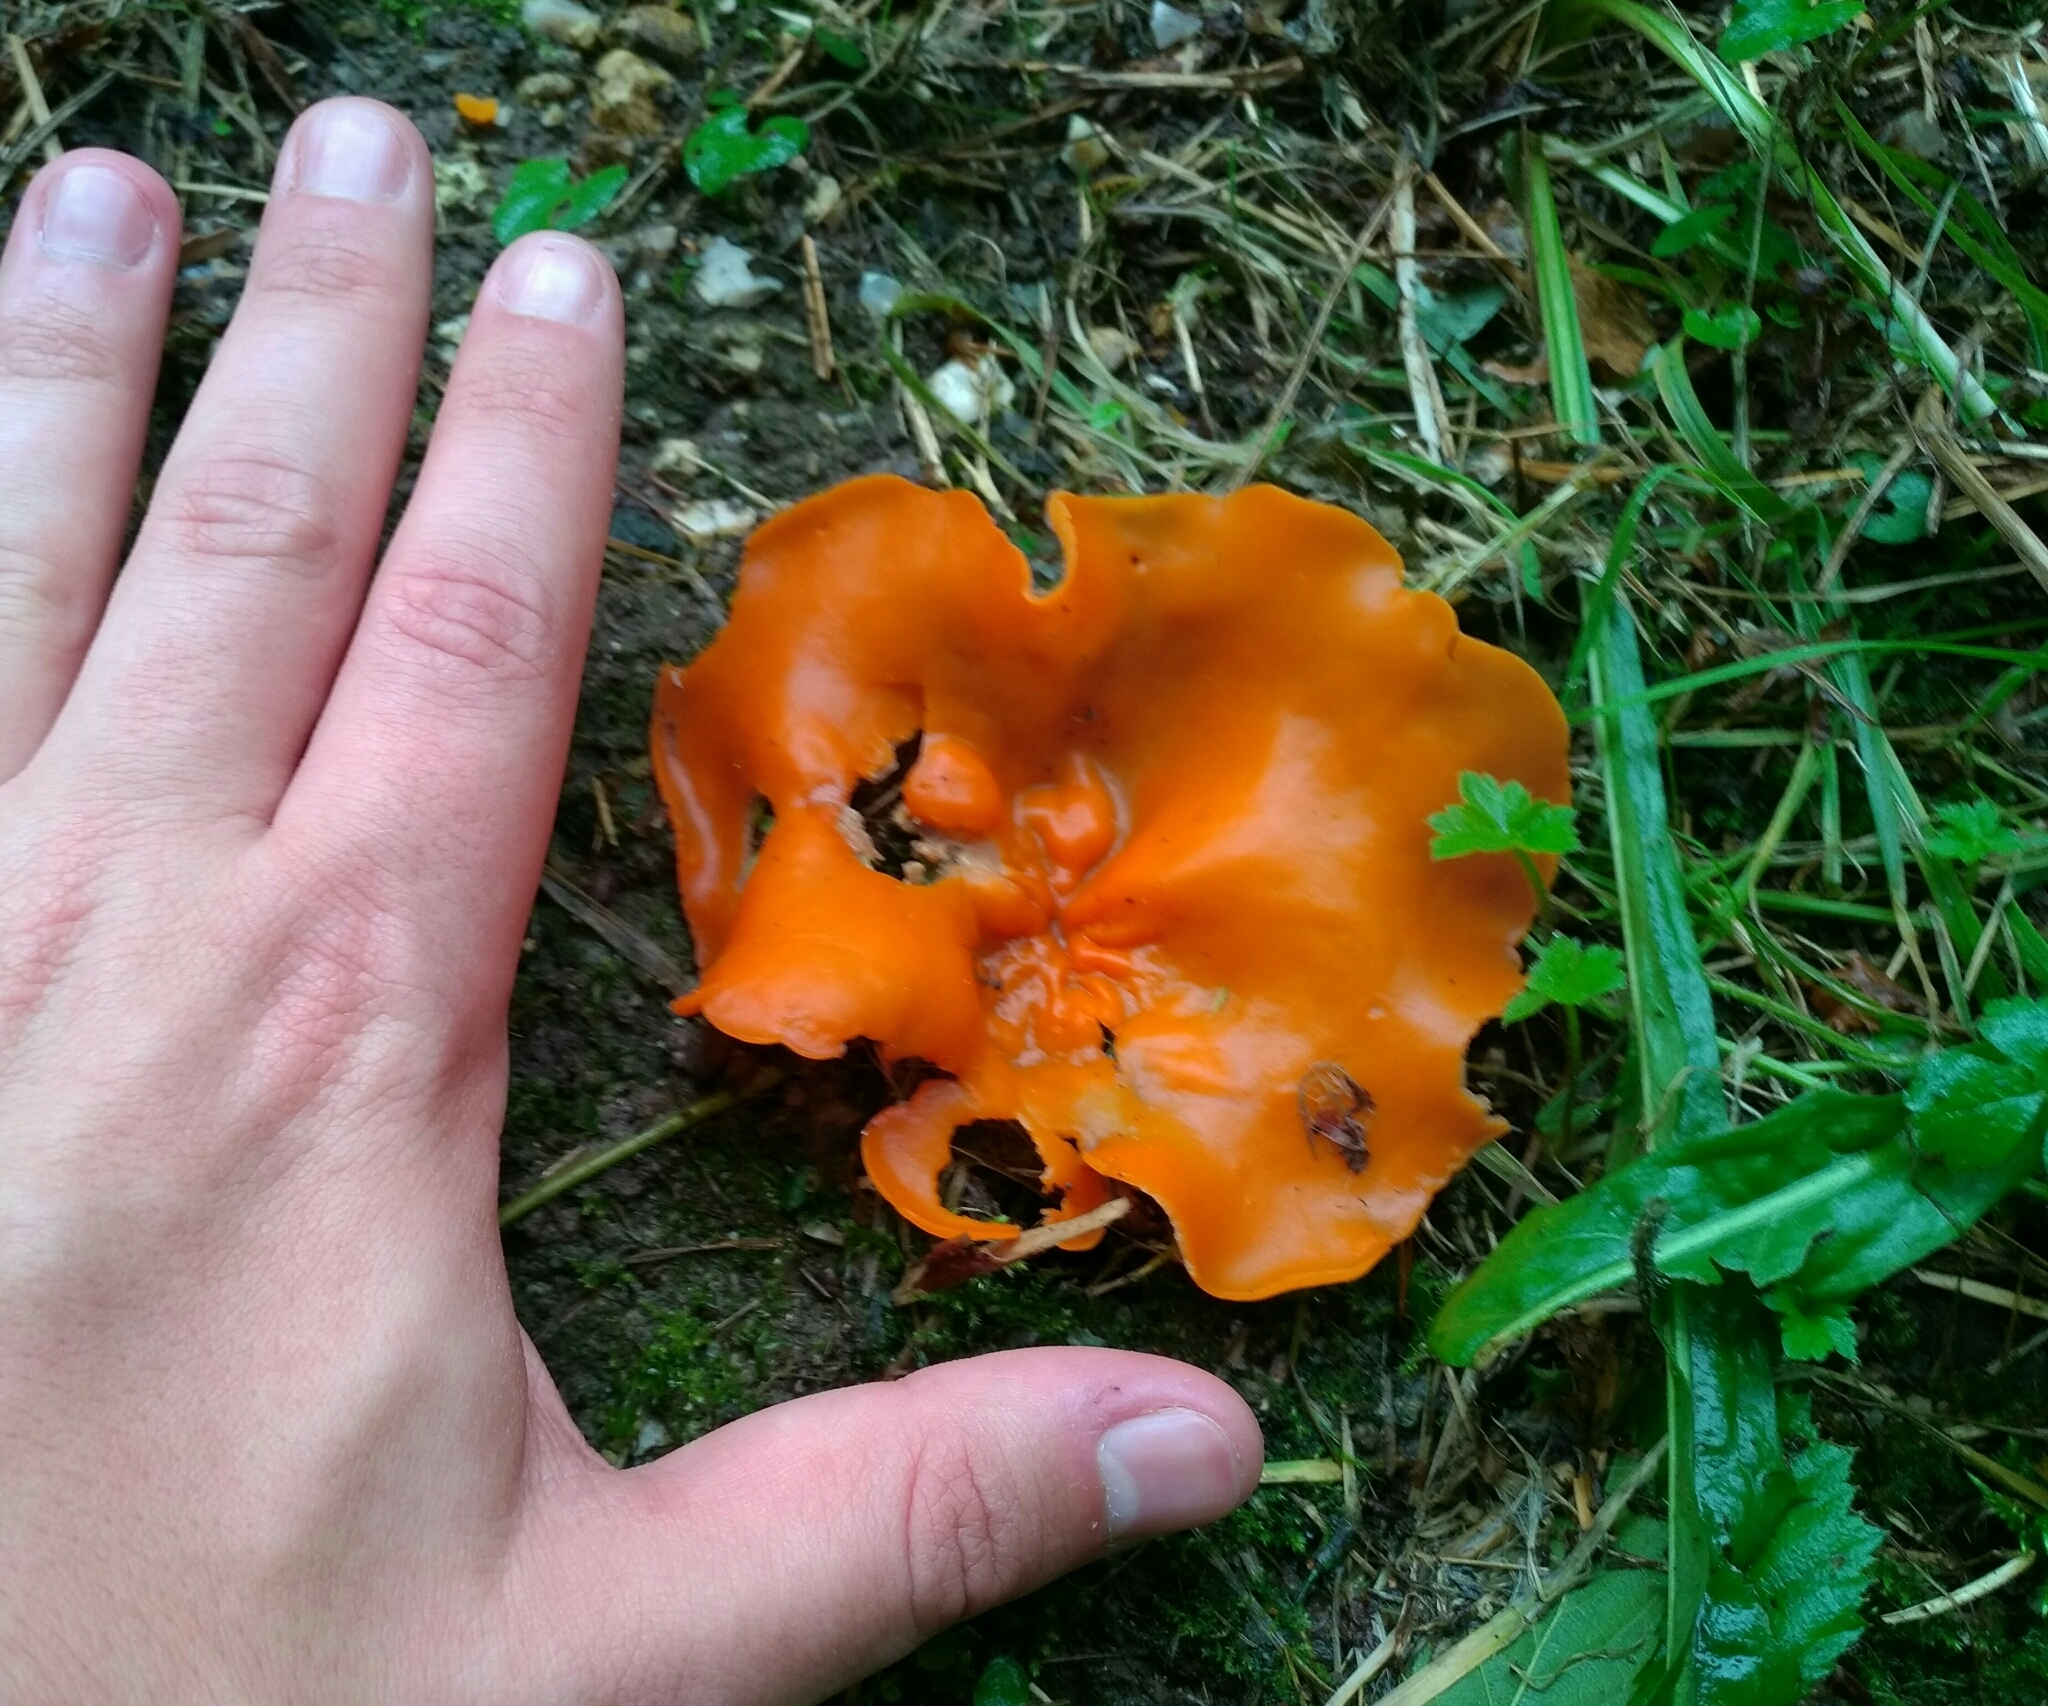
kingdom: Fungi
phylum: Ascomycota
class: Pezizomycetes
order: Pezizales
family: Pyronemataceae
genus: Aleuria
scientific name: Aleuria aurantia
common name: Orange peel fungus
